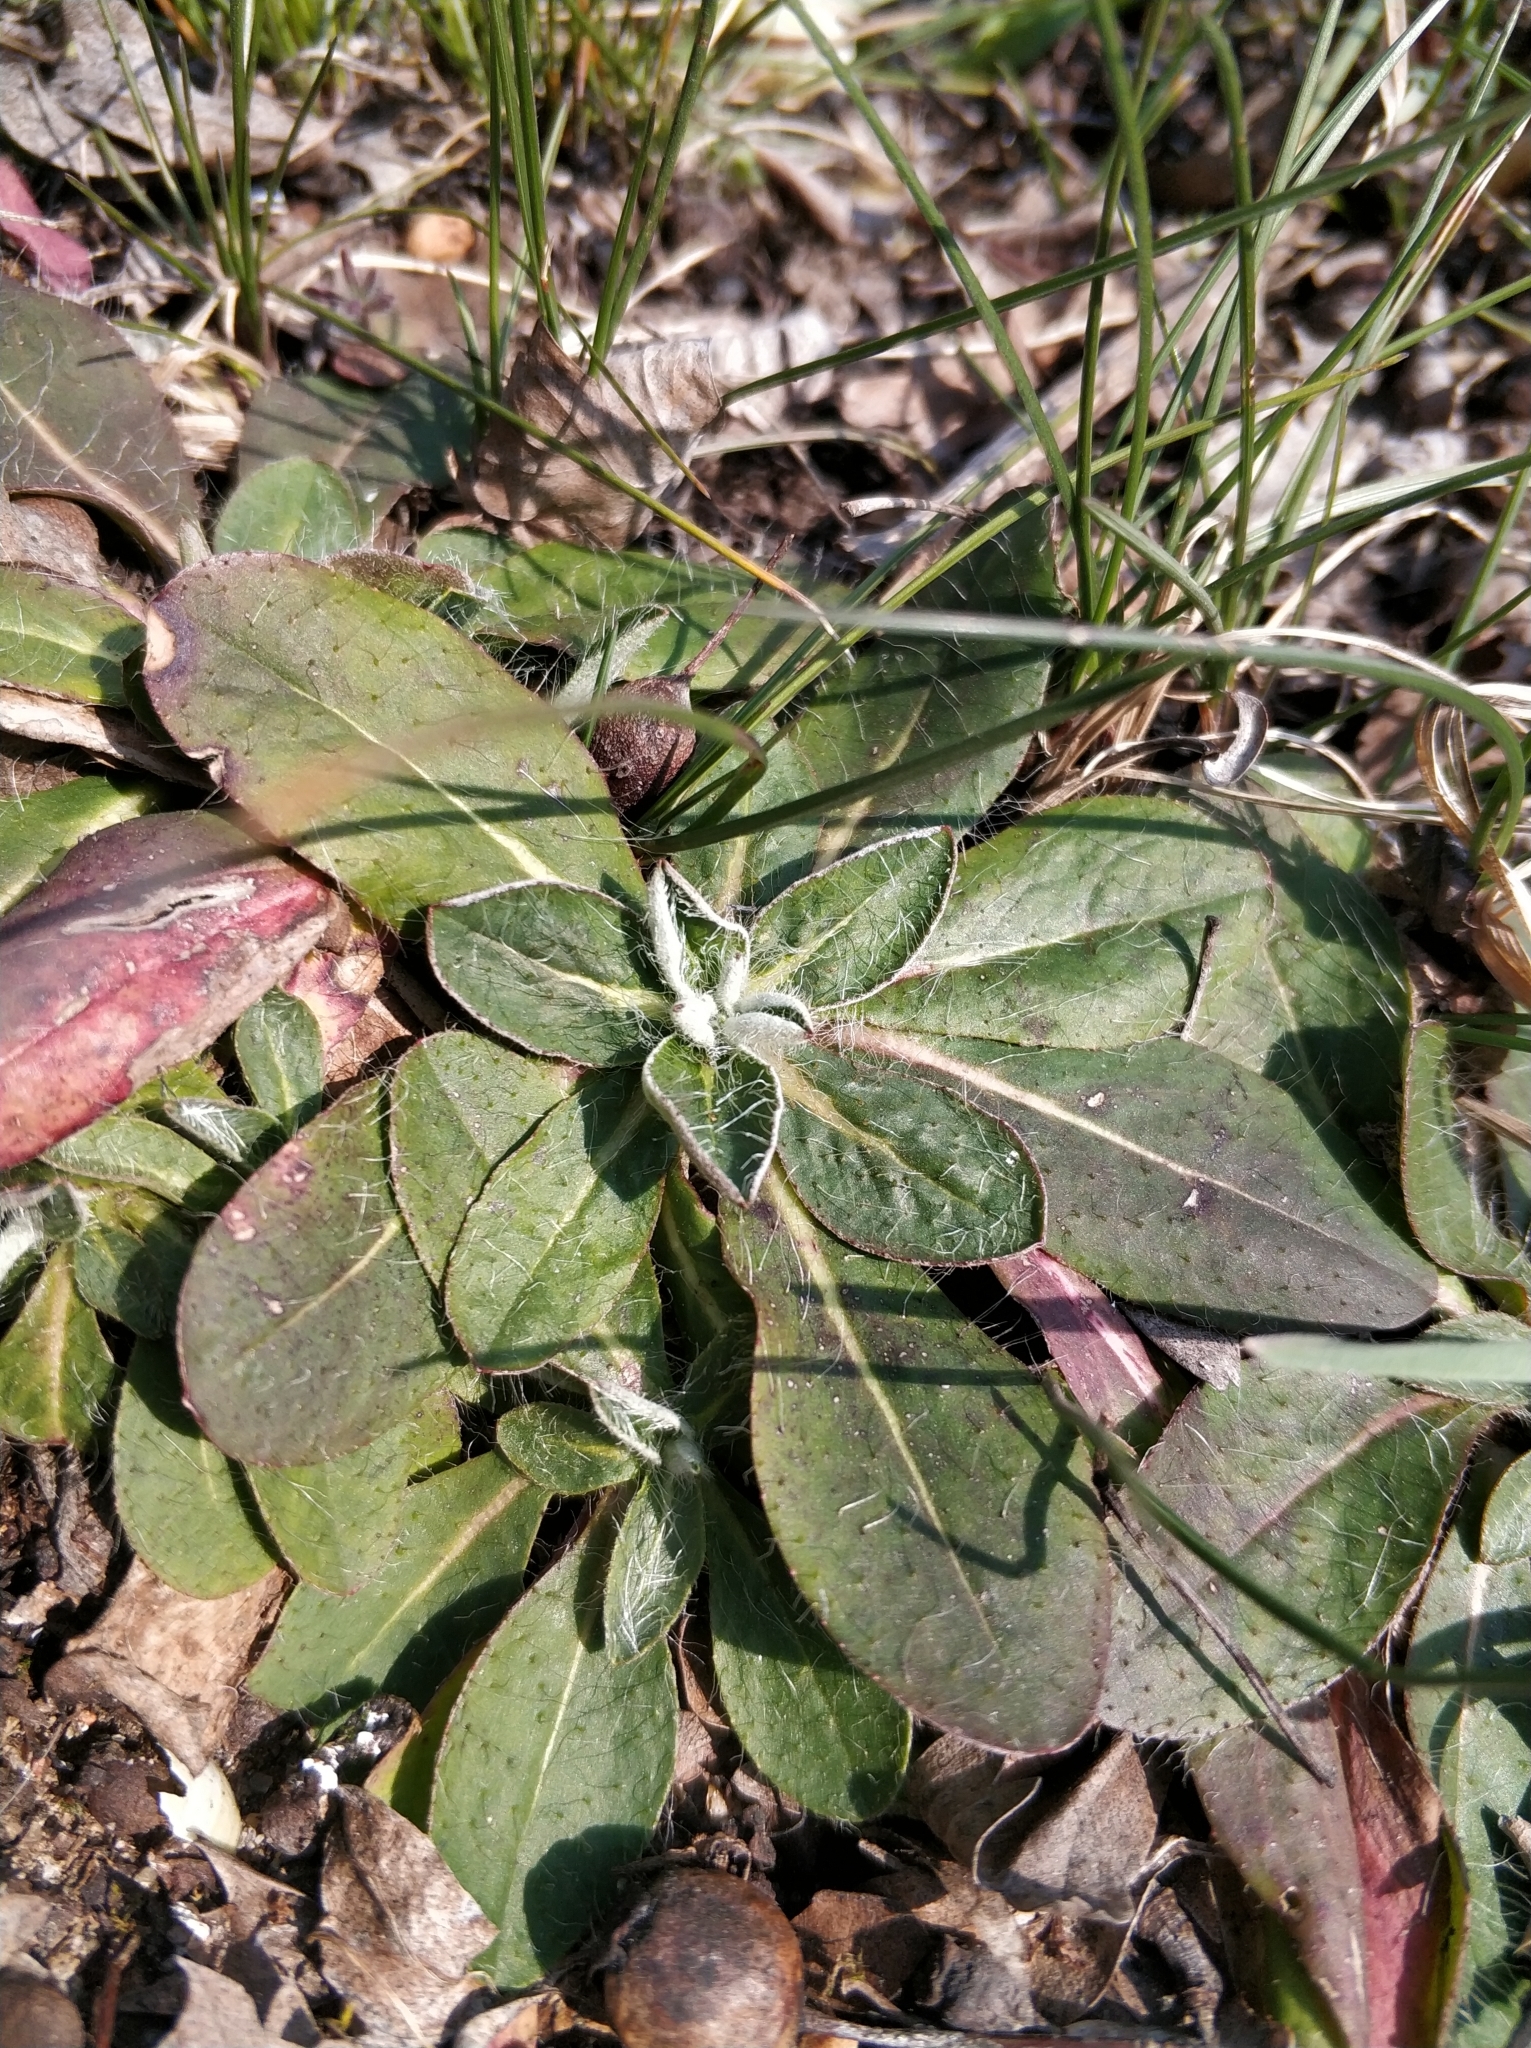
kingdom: Plantae
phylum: Tracheophyta
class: Magnoliopsida
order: Asterales
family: Asteraceae
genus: Pilosella
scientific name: Pilosella officinarum
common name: Mouse-ear hawkweed
